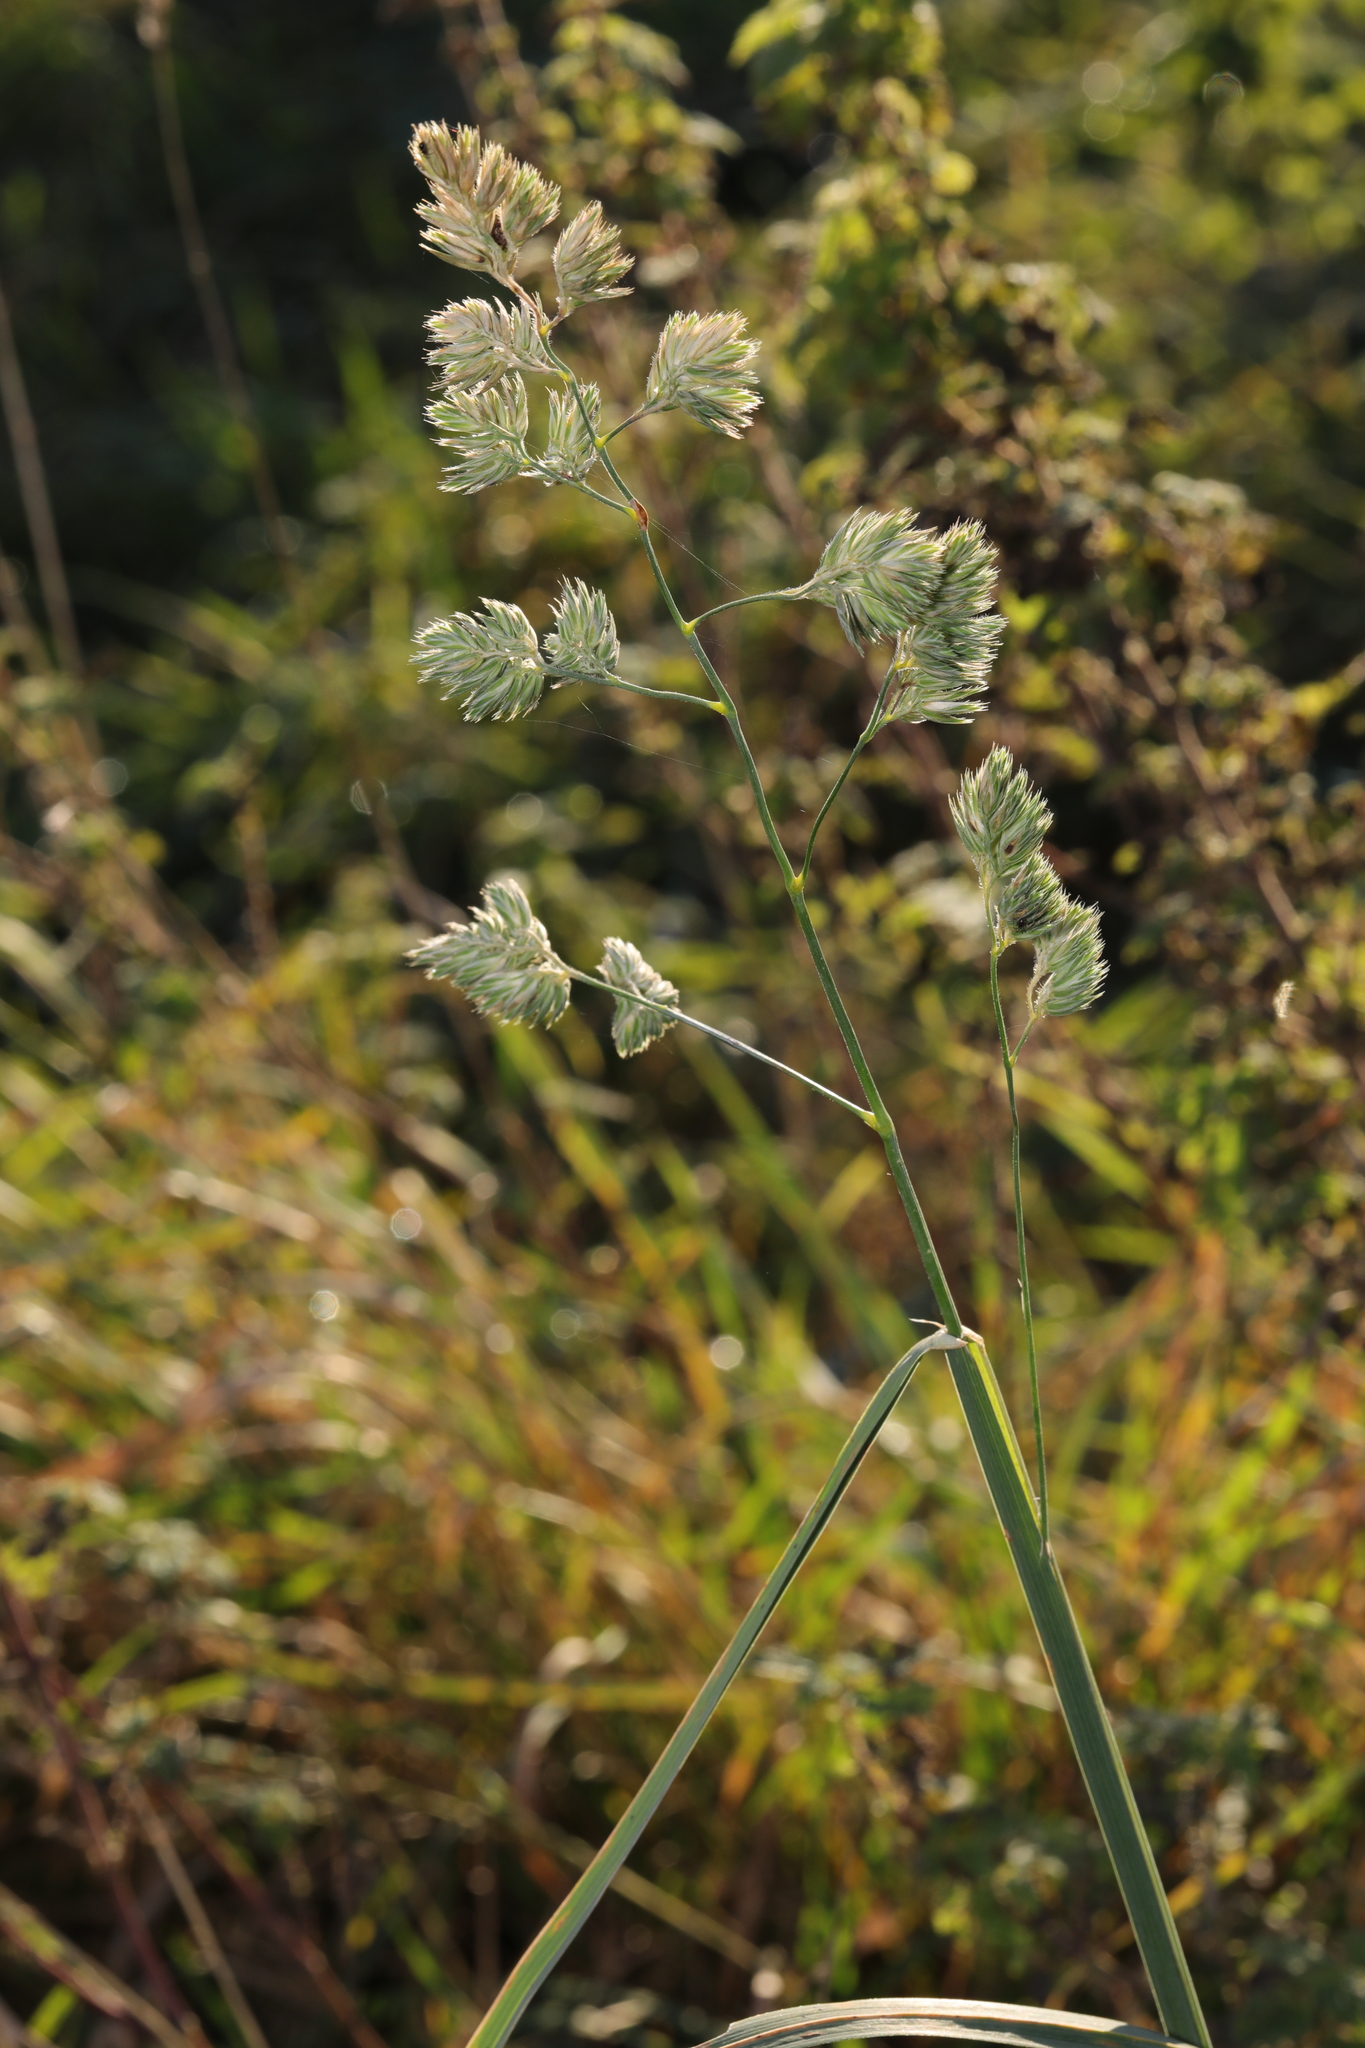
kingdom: Plantae
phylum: Tracheophyta
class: Liliopsida
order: Poales
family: Poaceae
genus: Dactylis
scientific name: Dactylis glomerata
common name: Orchardgrass
